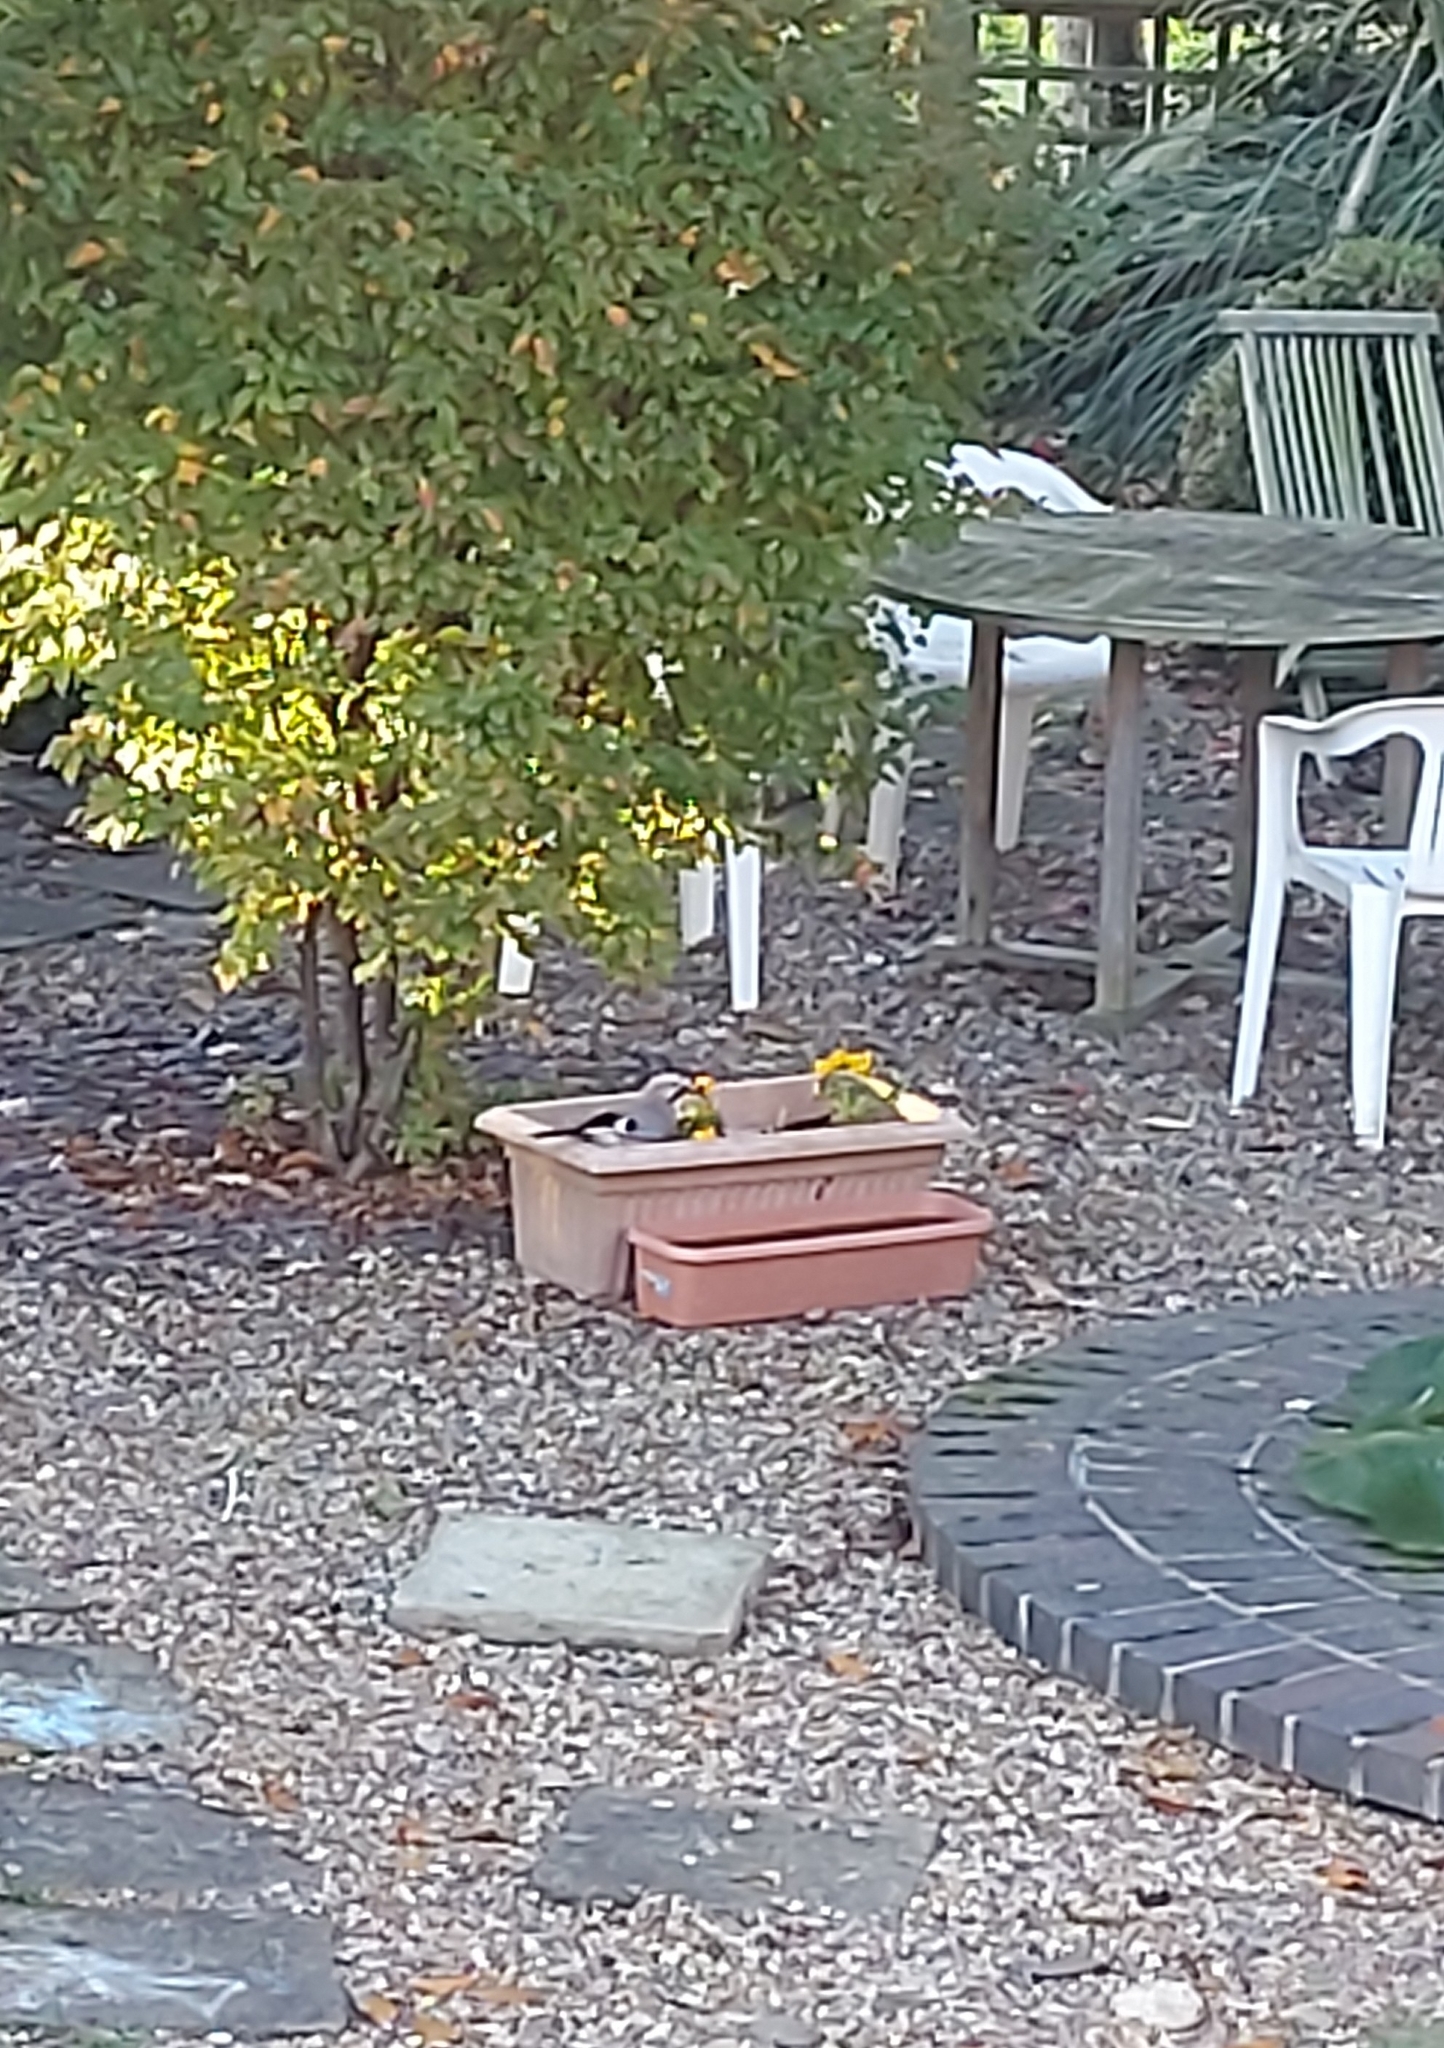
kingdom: Animalia
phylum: Chordata
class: Aves
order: Passeriformes
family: Corvidae
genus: Garrulus
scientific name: Garrulus glandarius
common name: Eurasian jay
